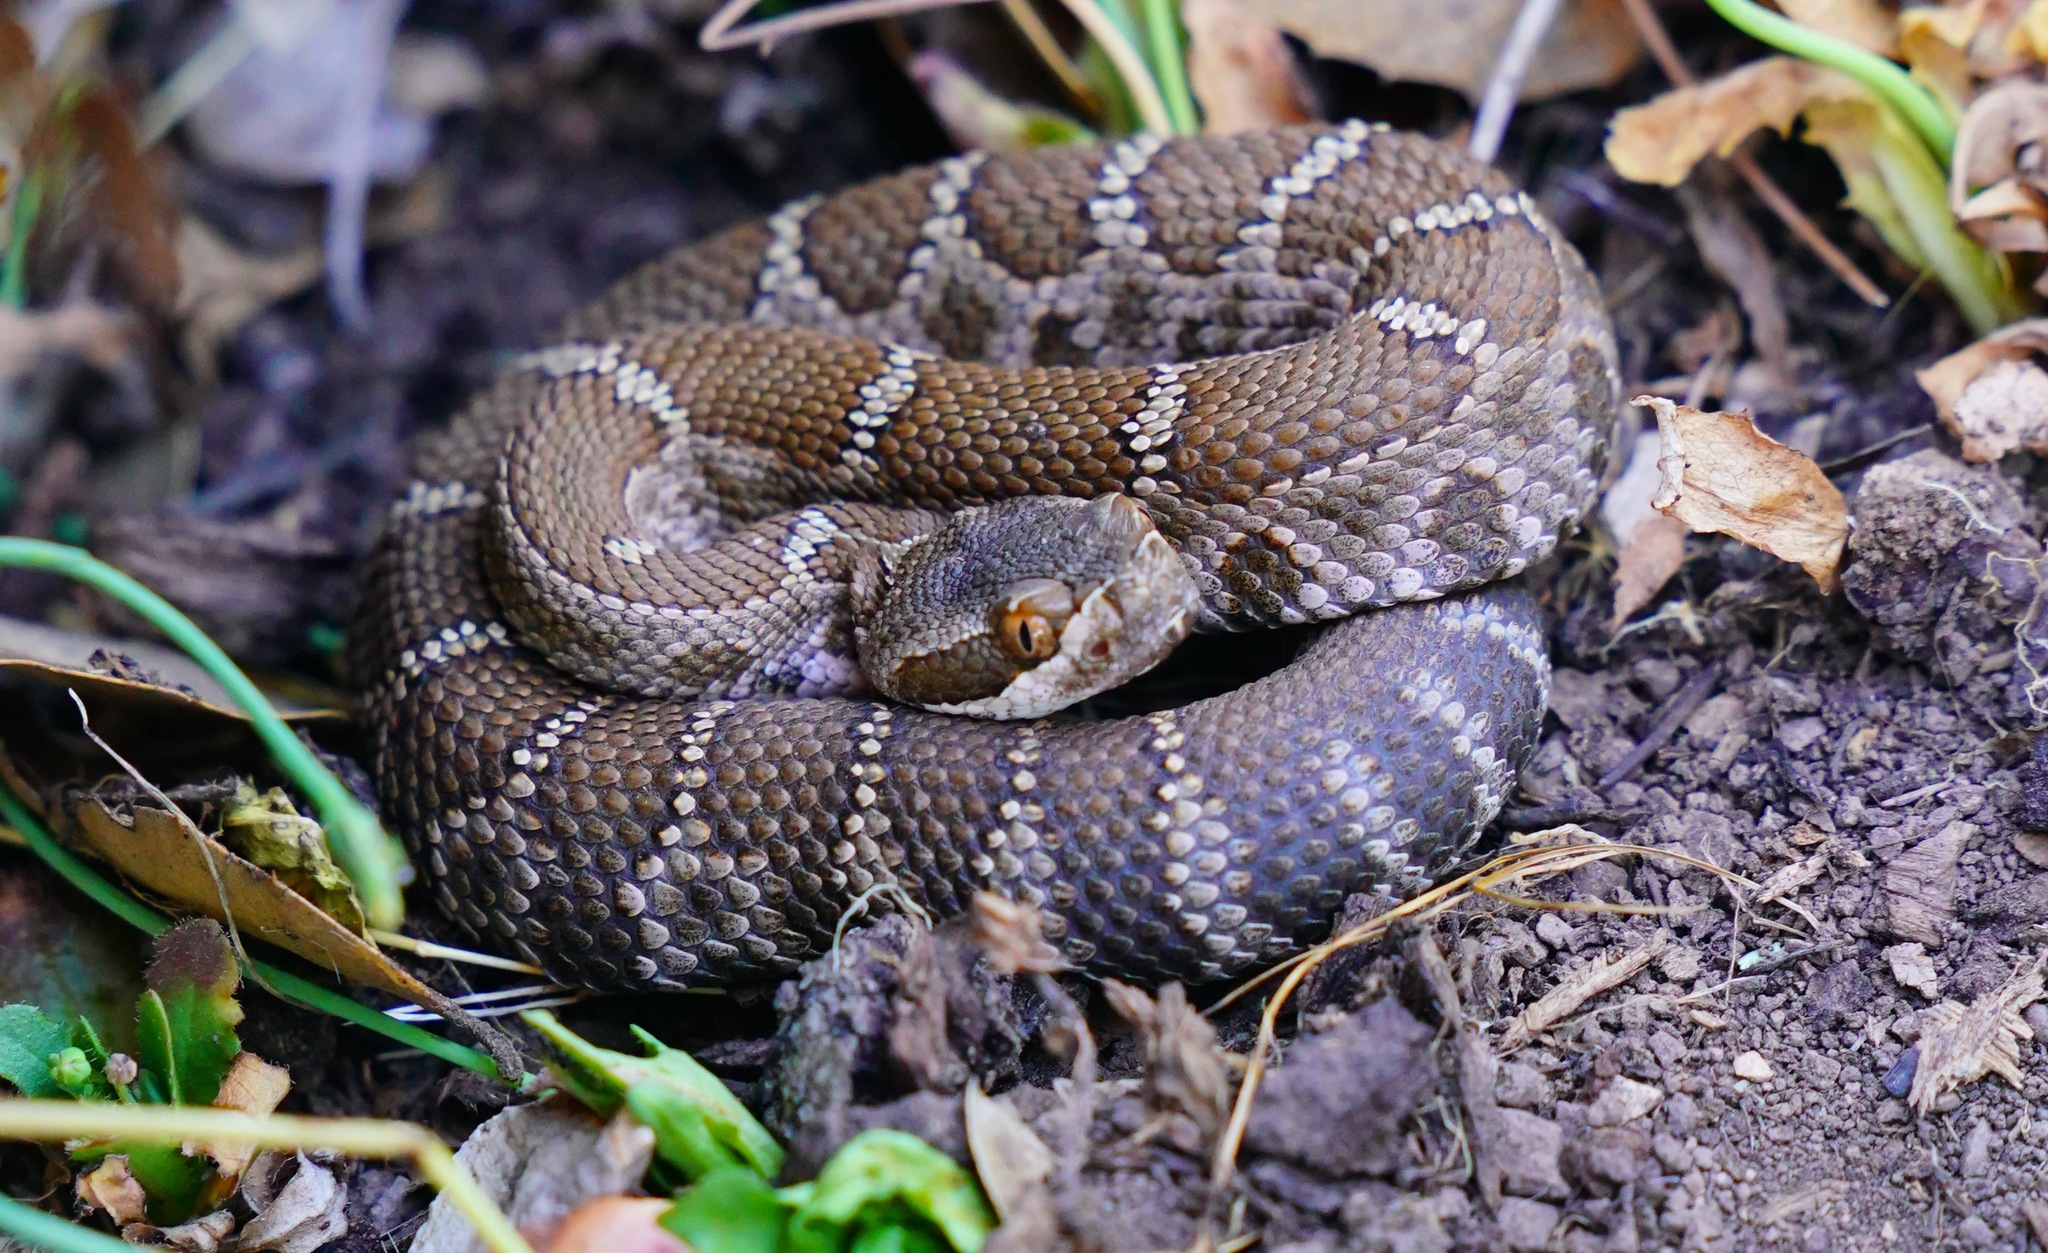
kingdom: Animalia
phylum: Chordata
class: Squamata
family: Viperidae
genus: Crotalus
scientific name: Crotalus oreganus
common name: Abyssus
